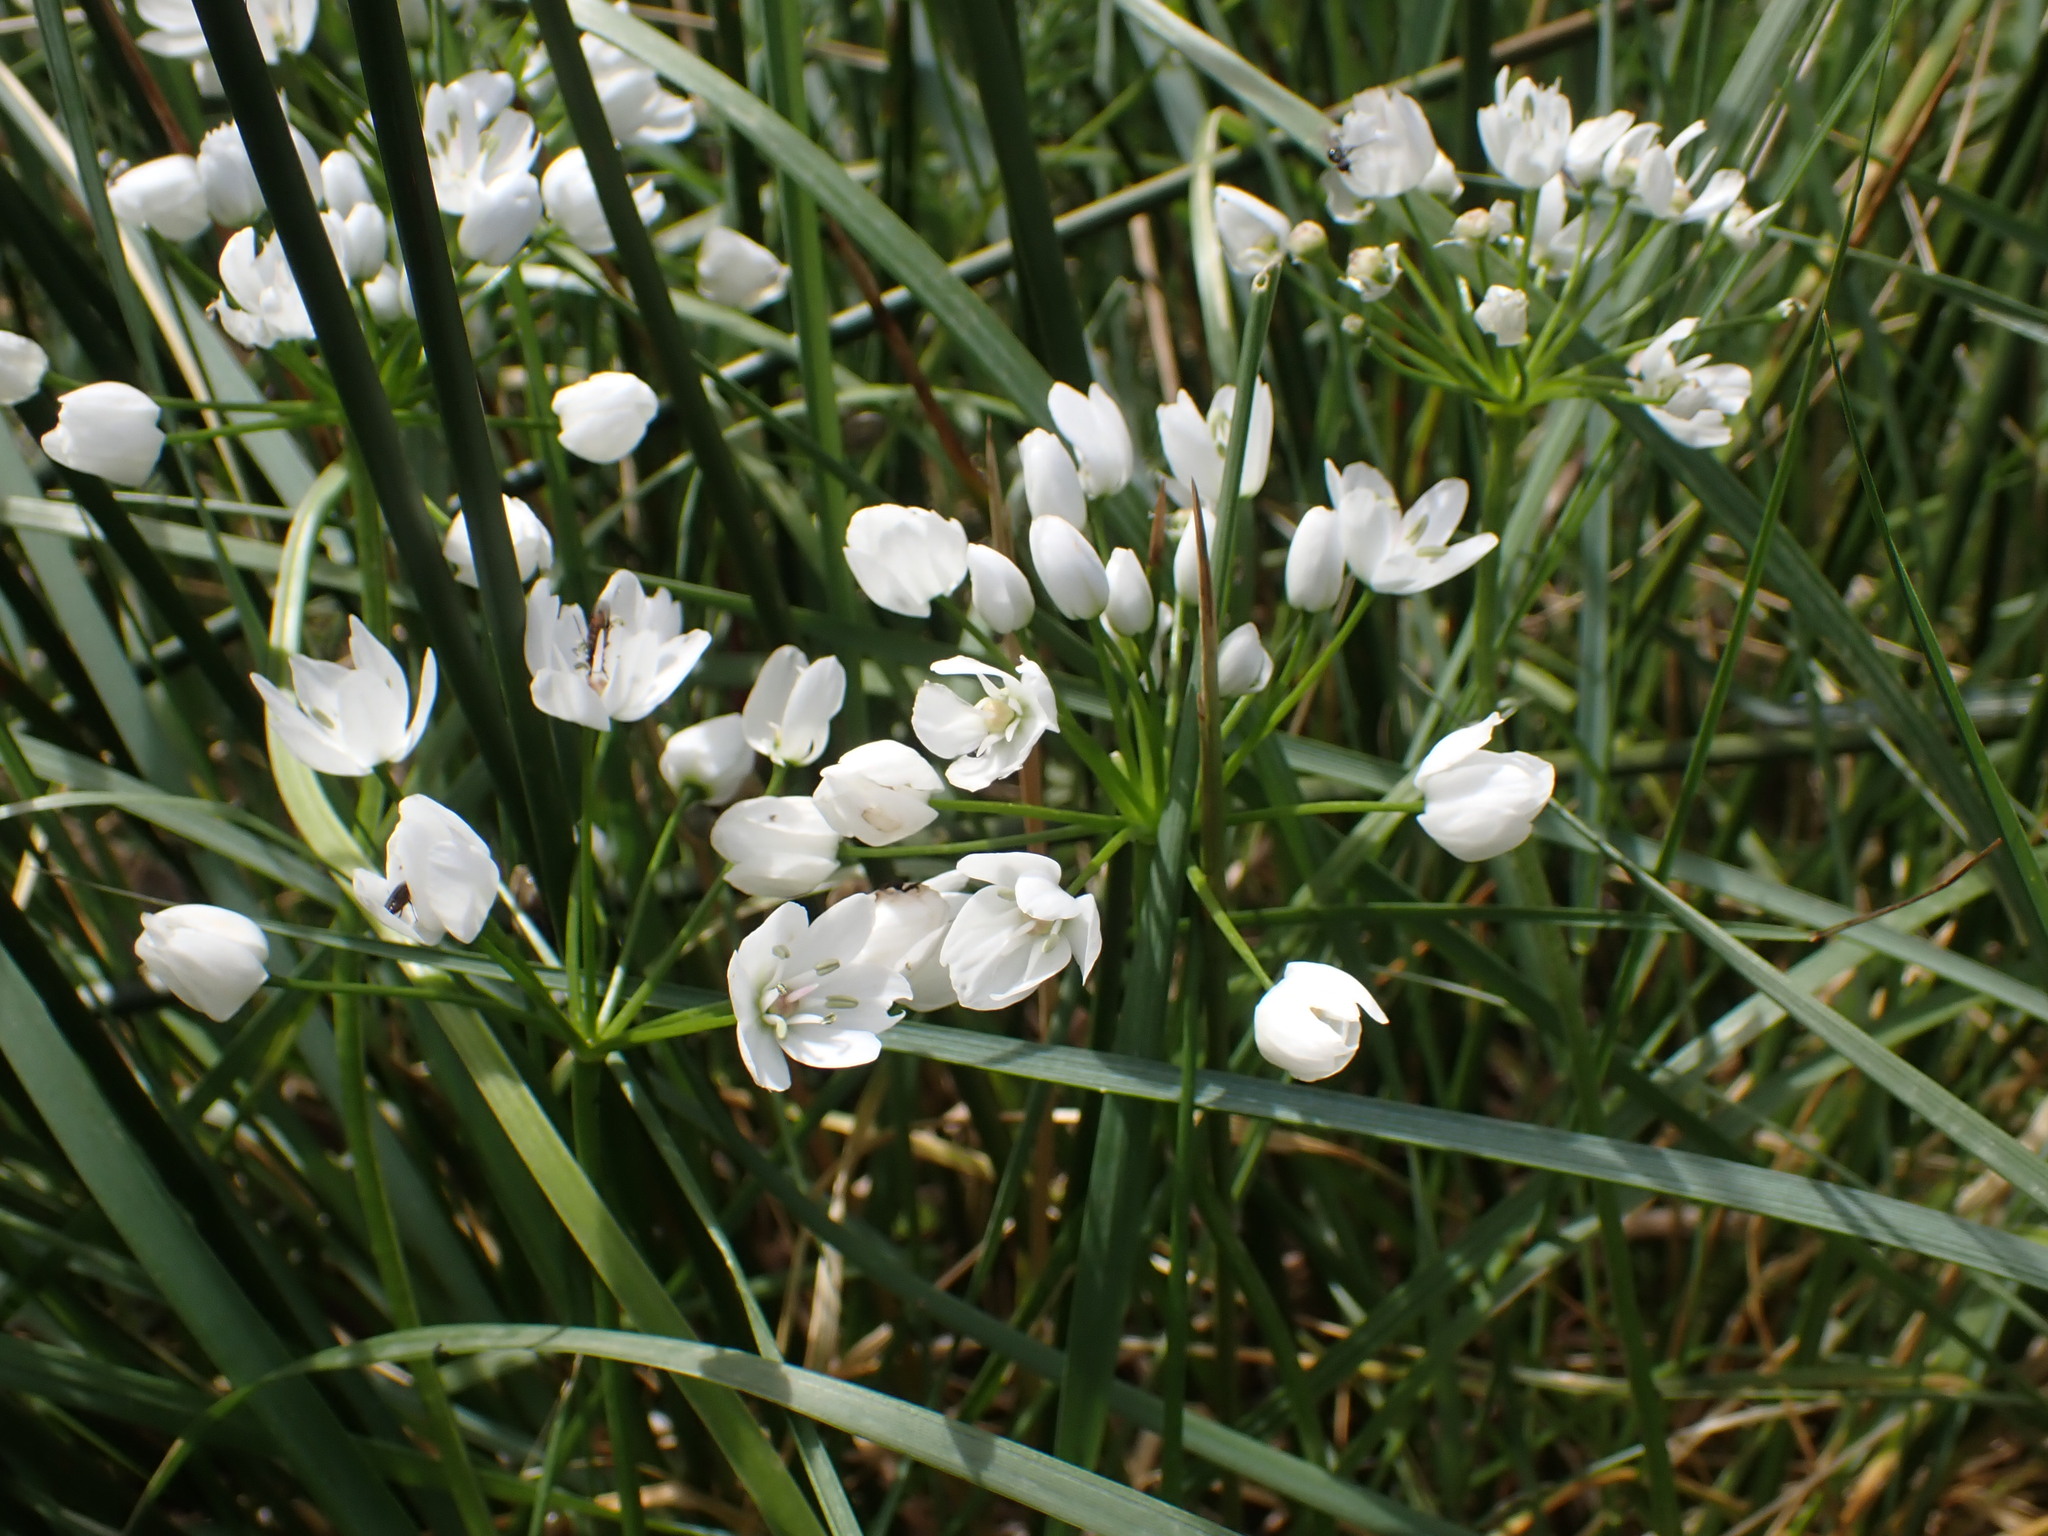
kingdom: Plantae
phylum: Tracheophyta
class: Liliopsida
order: Asparagales
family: Amaryllidaceae
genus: Allium
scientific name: Allium neapolitanum
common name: Neapolitan garlic
